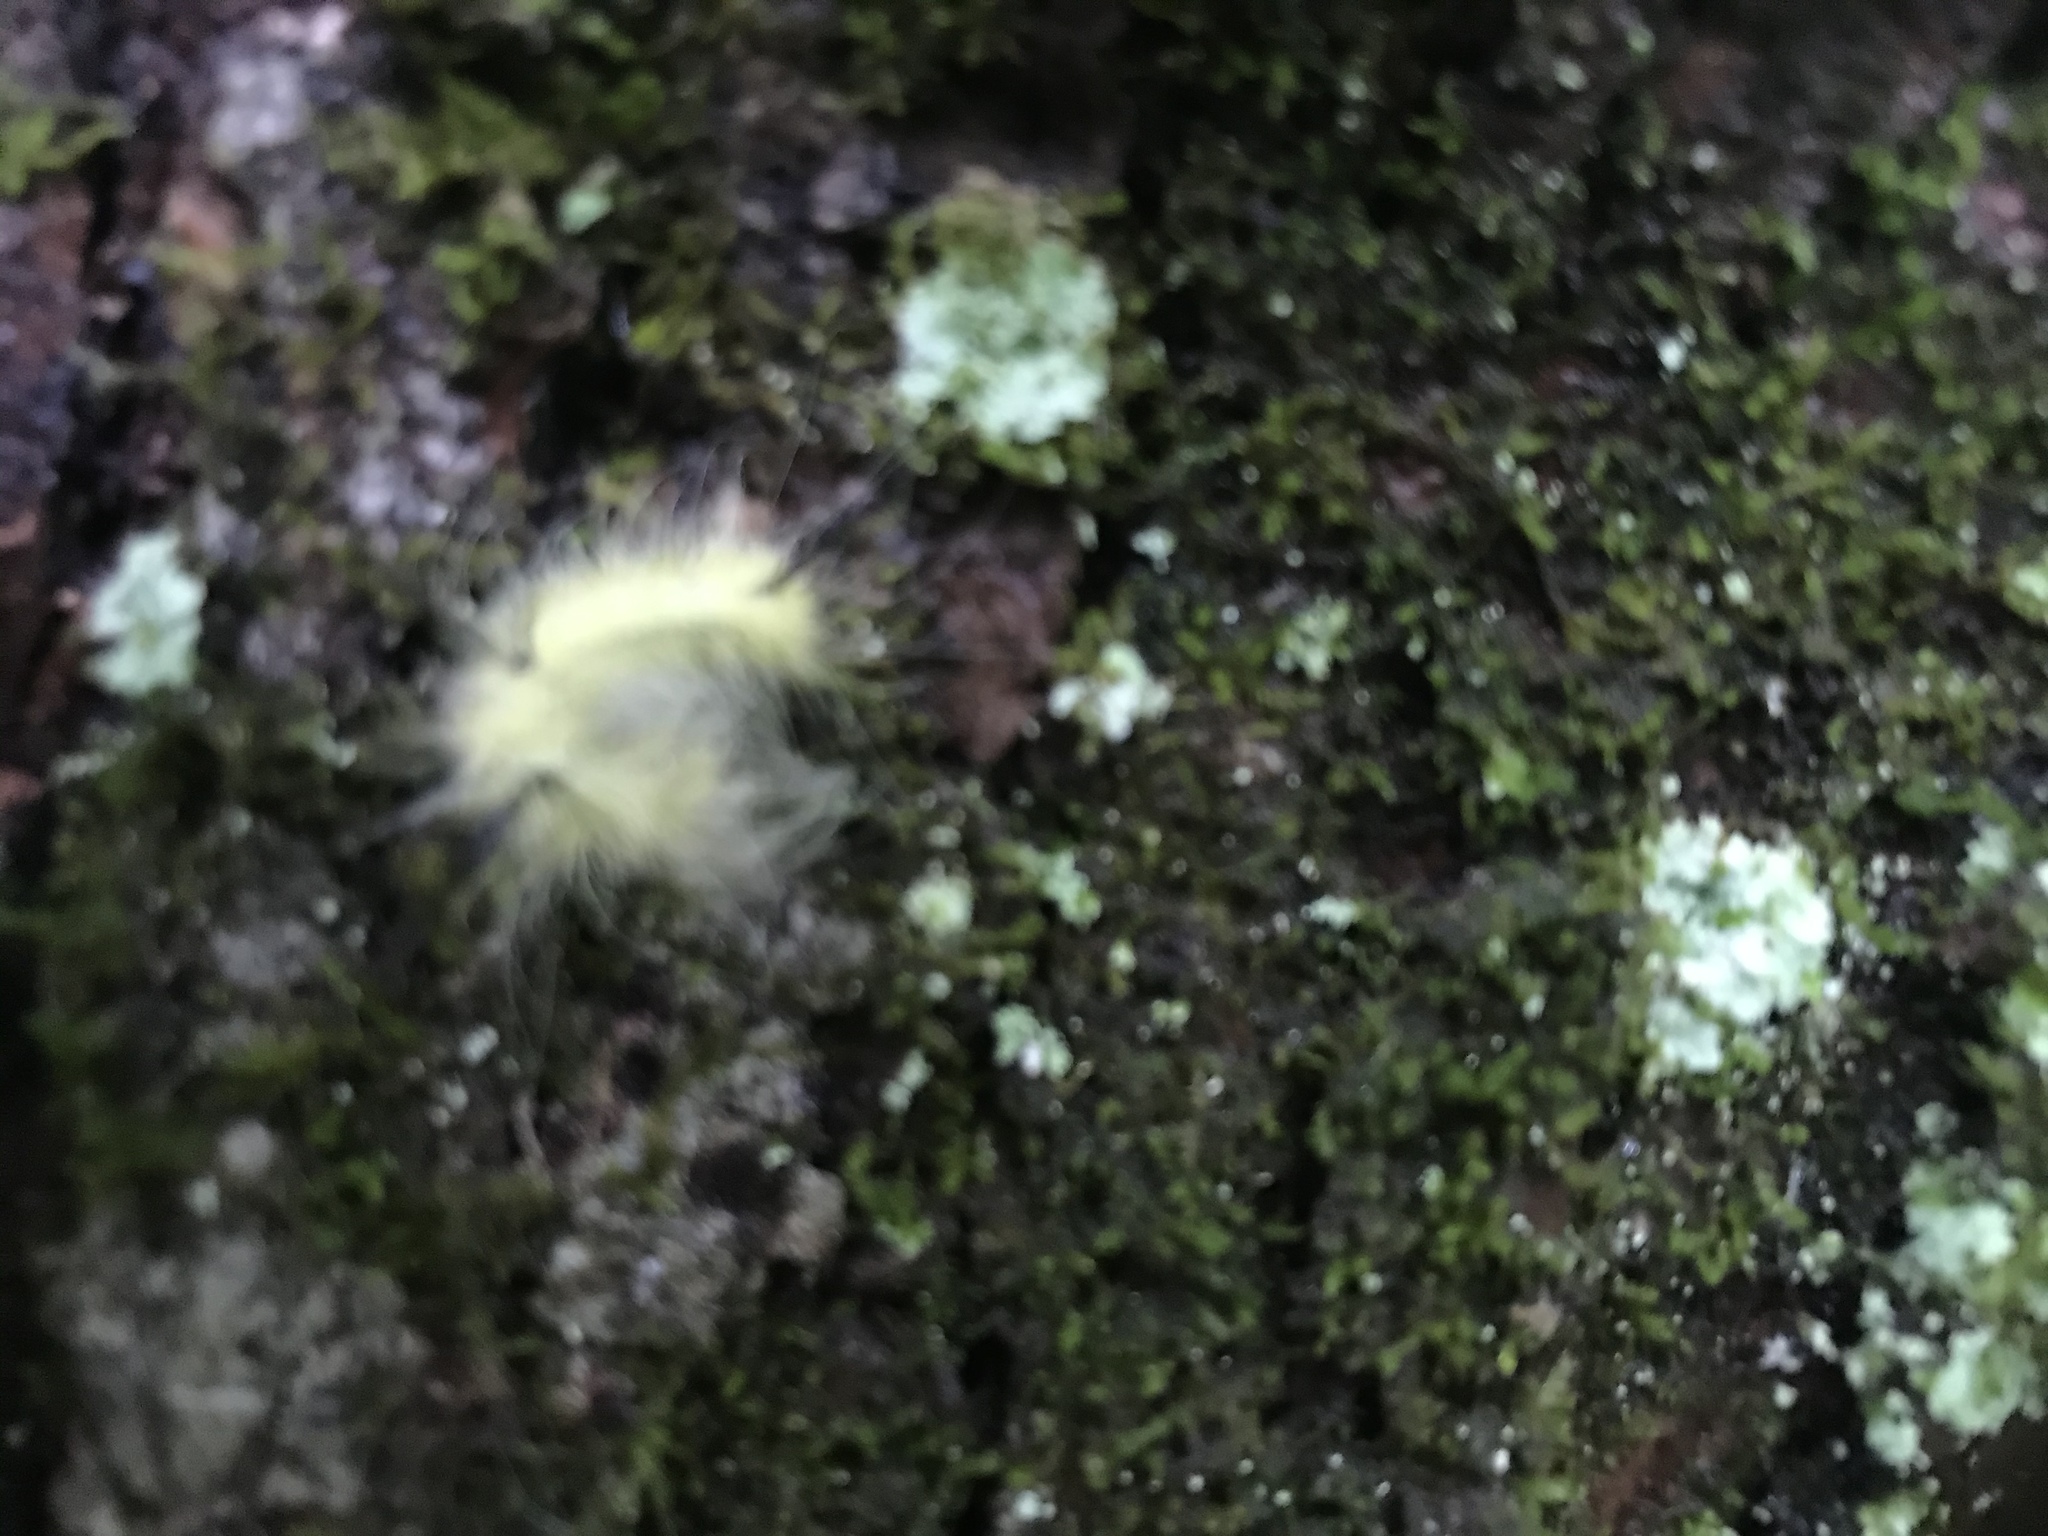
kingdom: Animalia
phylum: Arthropoda
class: Insecta
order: Lepidoptera
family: Noctuidae
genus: Acronicta
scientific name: Acronicta americana
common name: American dagger
